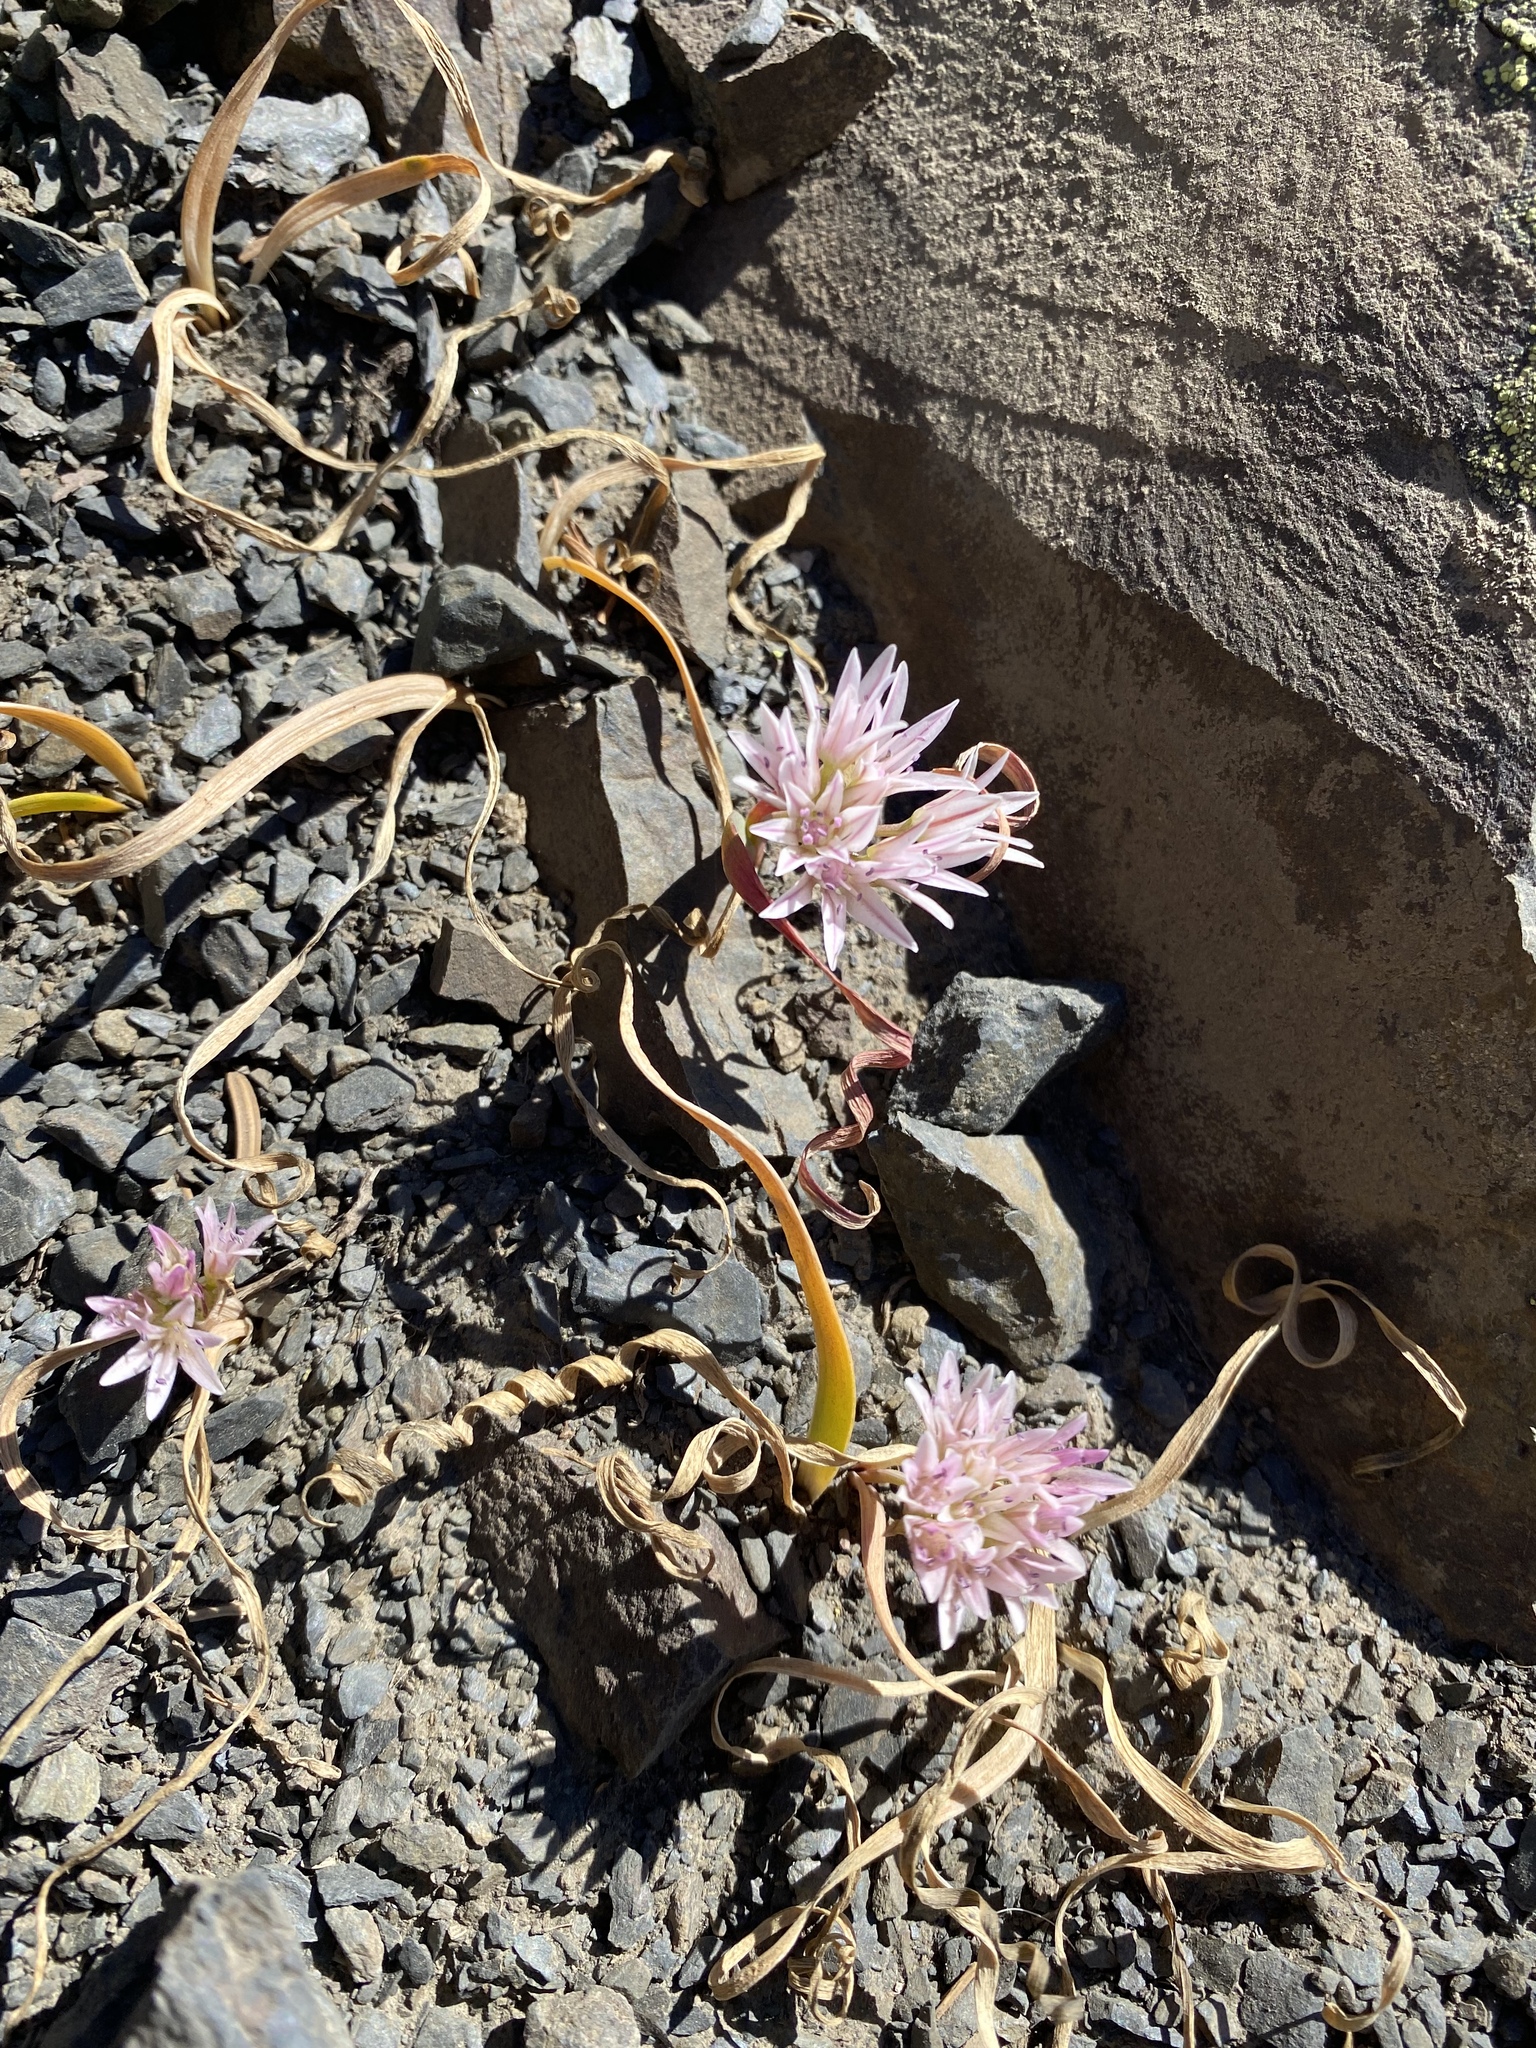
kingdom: Plantae
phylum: Tracheophyta
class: Liliopsida
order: Asparagales
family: Amaryllidaceae
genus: Allium
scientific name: Allium crenulatum
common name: Olympic onion
